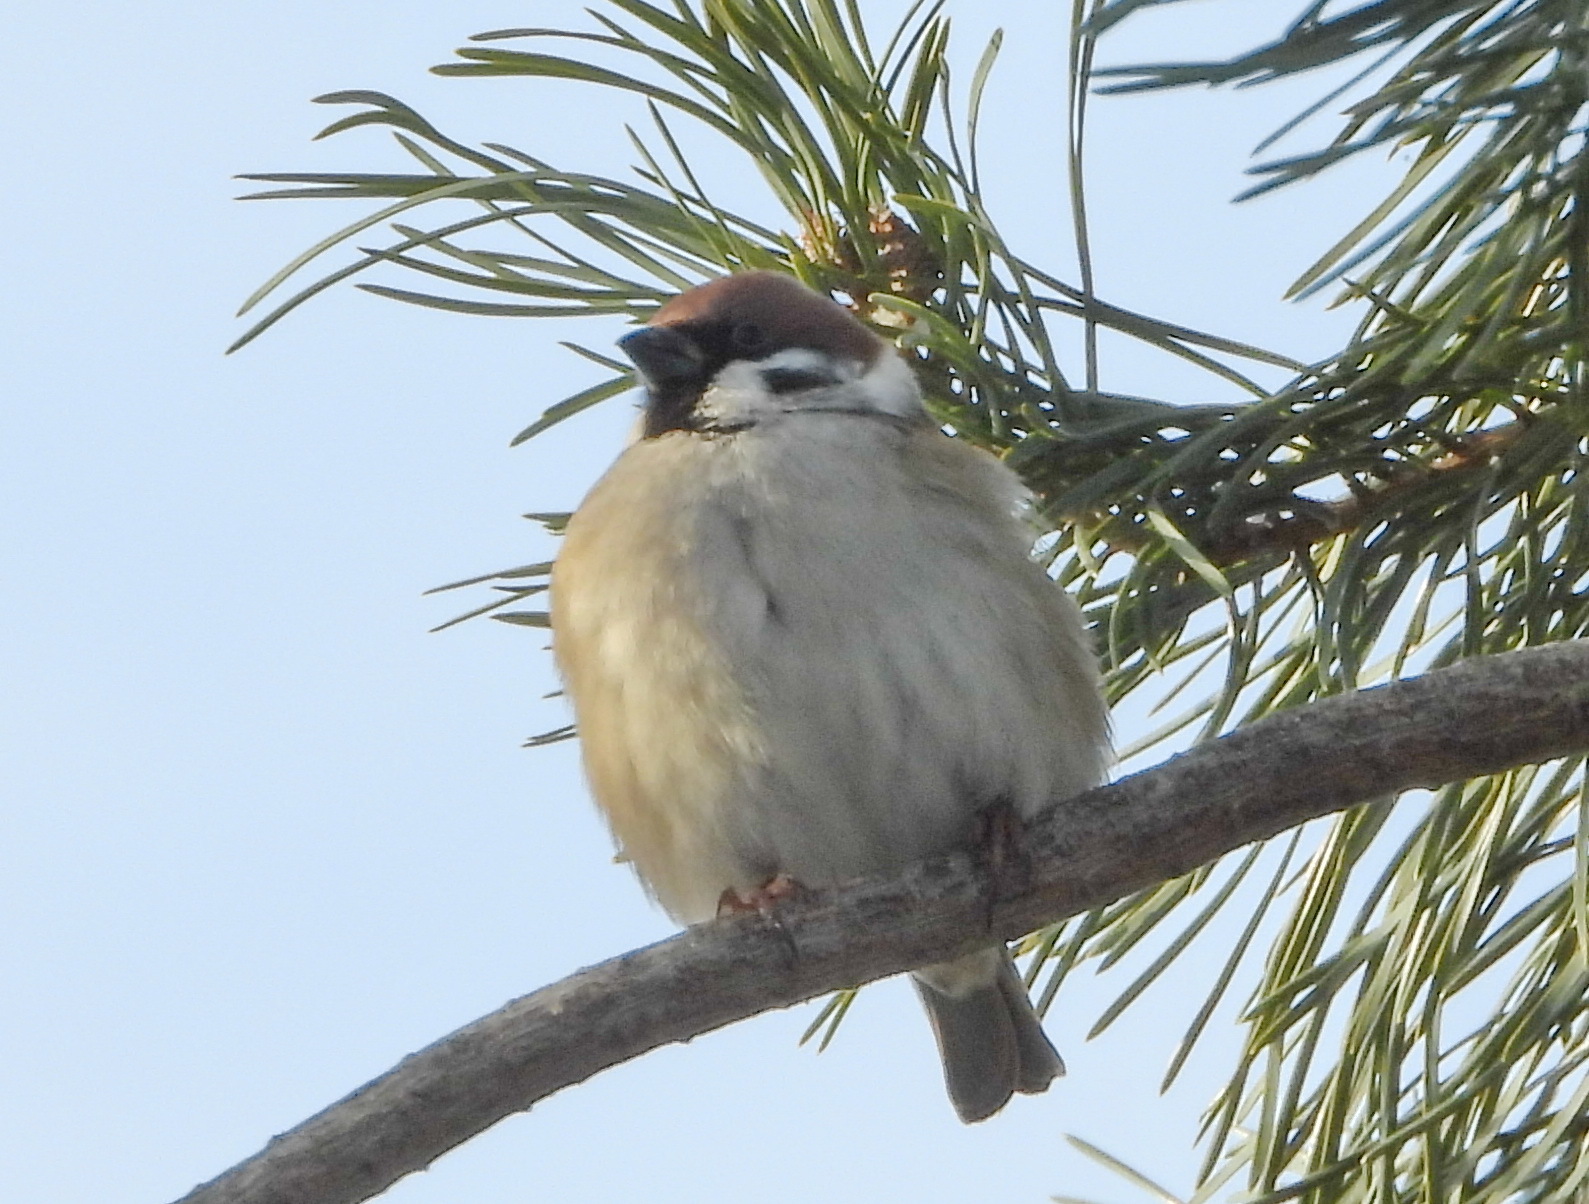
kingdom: Animalia
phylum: Chordata
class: Aves
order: Passeriformes
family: Passeridae
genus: Passer
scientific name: Passer montanus
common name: Eurasian tree sparrow
